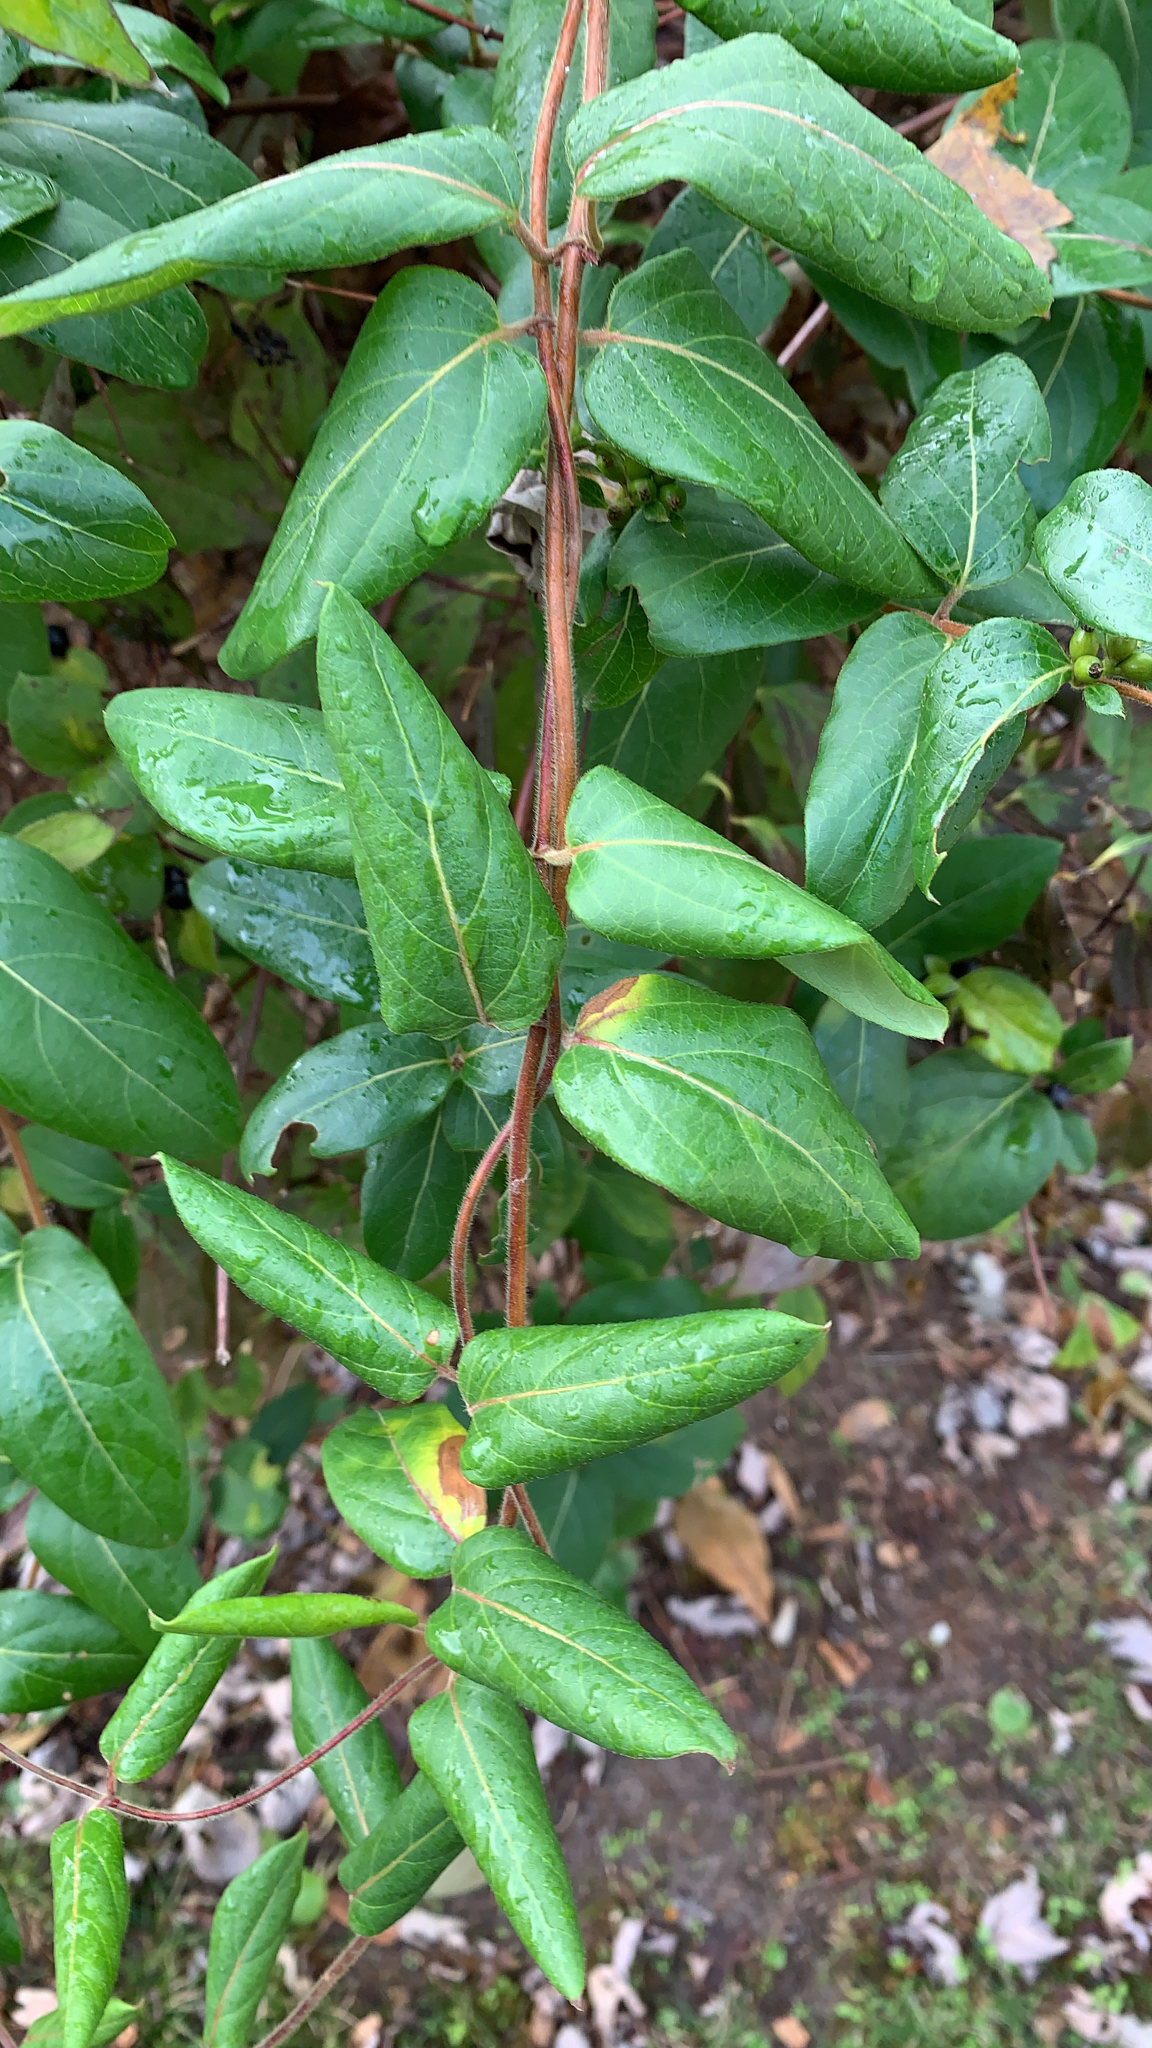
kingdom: Plantae
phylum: Tracheophyta
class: Magnoliopsida
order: Dipsacales
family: Caprifoliaceae
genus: Lonicera
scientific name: Lonicera japonica
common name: Japanese honeysuckle
